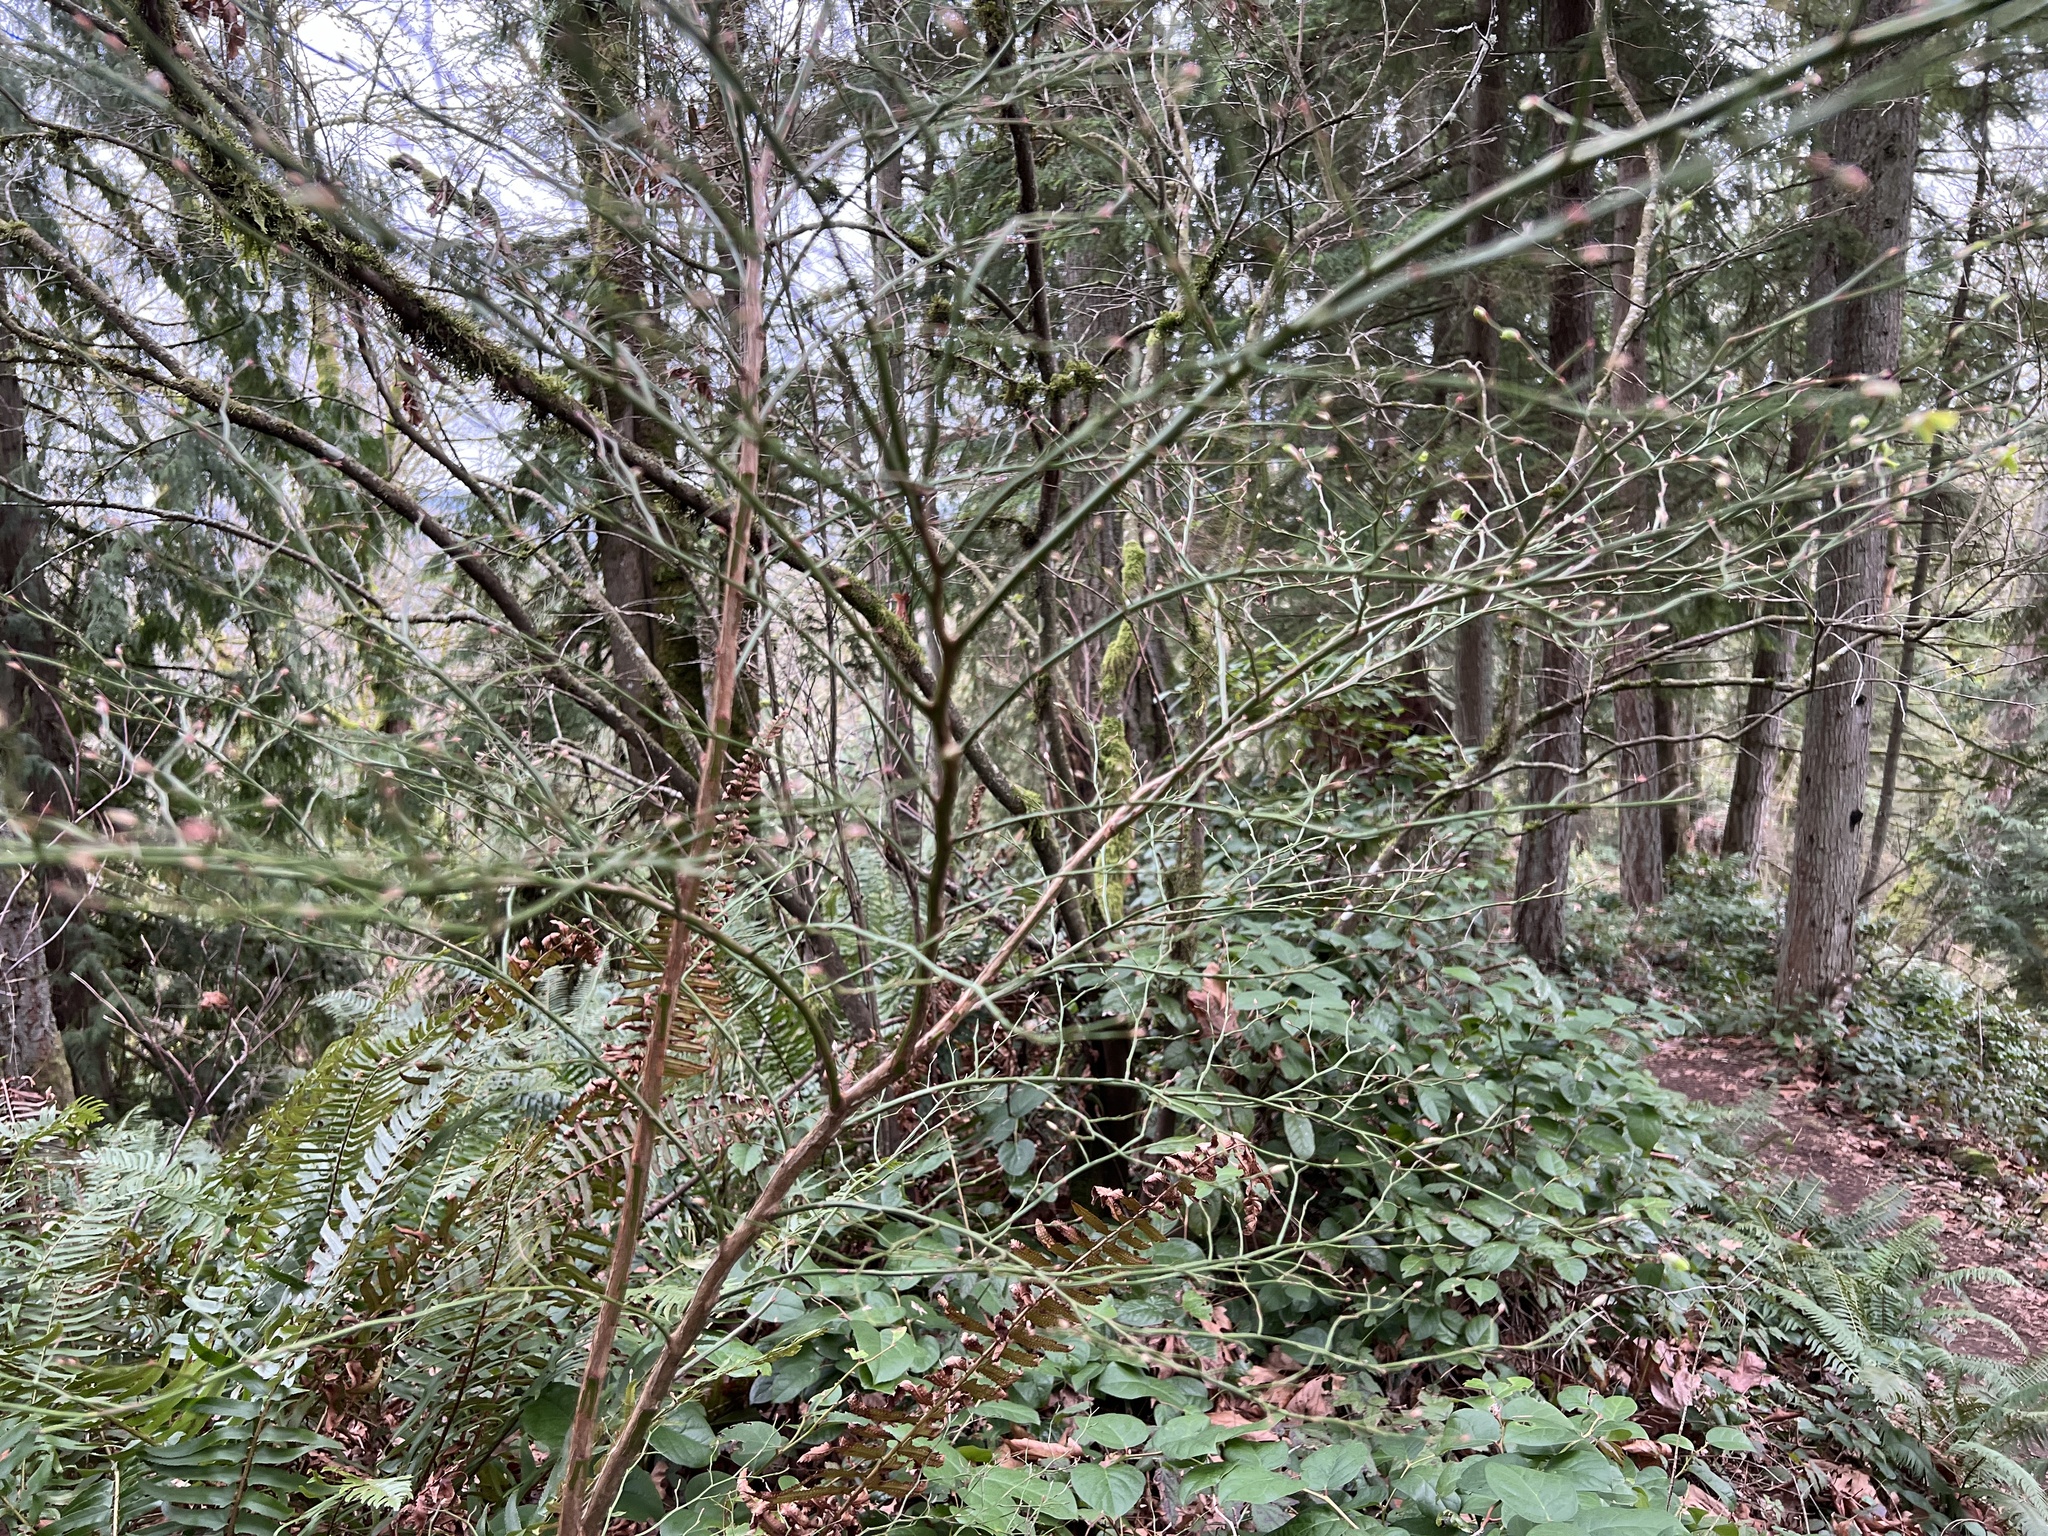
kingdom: Plantae
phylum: Tracheophyta
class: Magnoliopsida
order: Ericales
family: Ericaceae
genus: Vaccinium
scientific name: Vaccinium parvifolium
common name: Red-huckleberry
